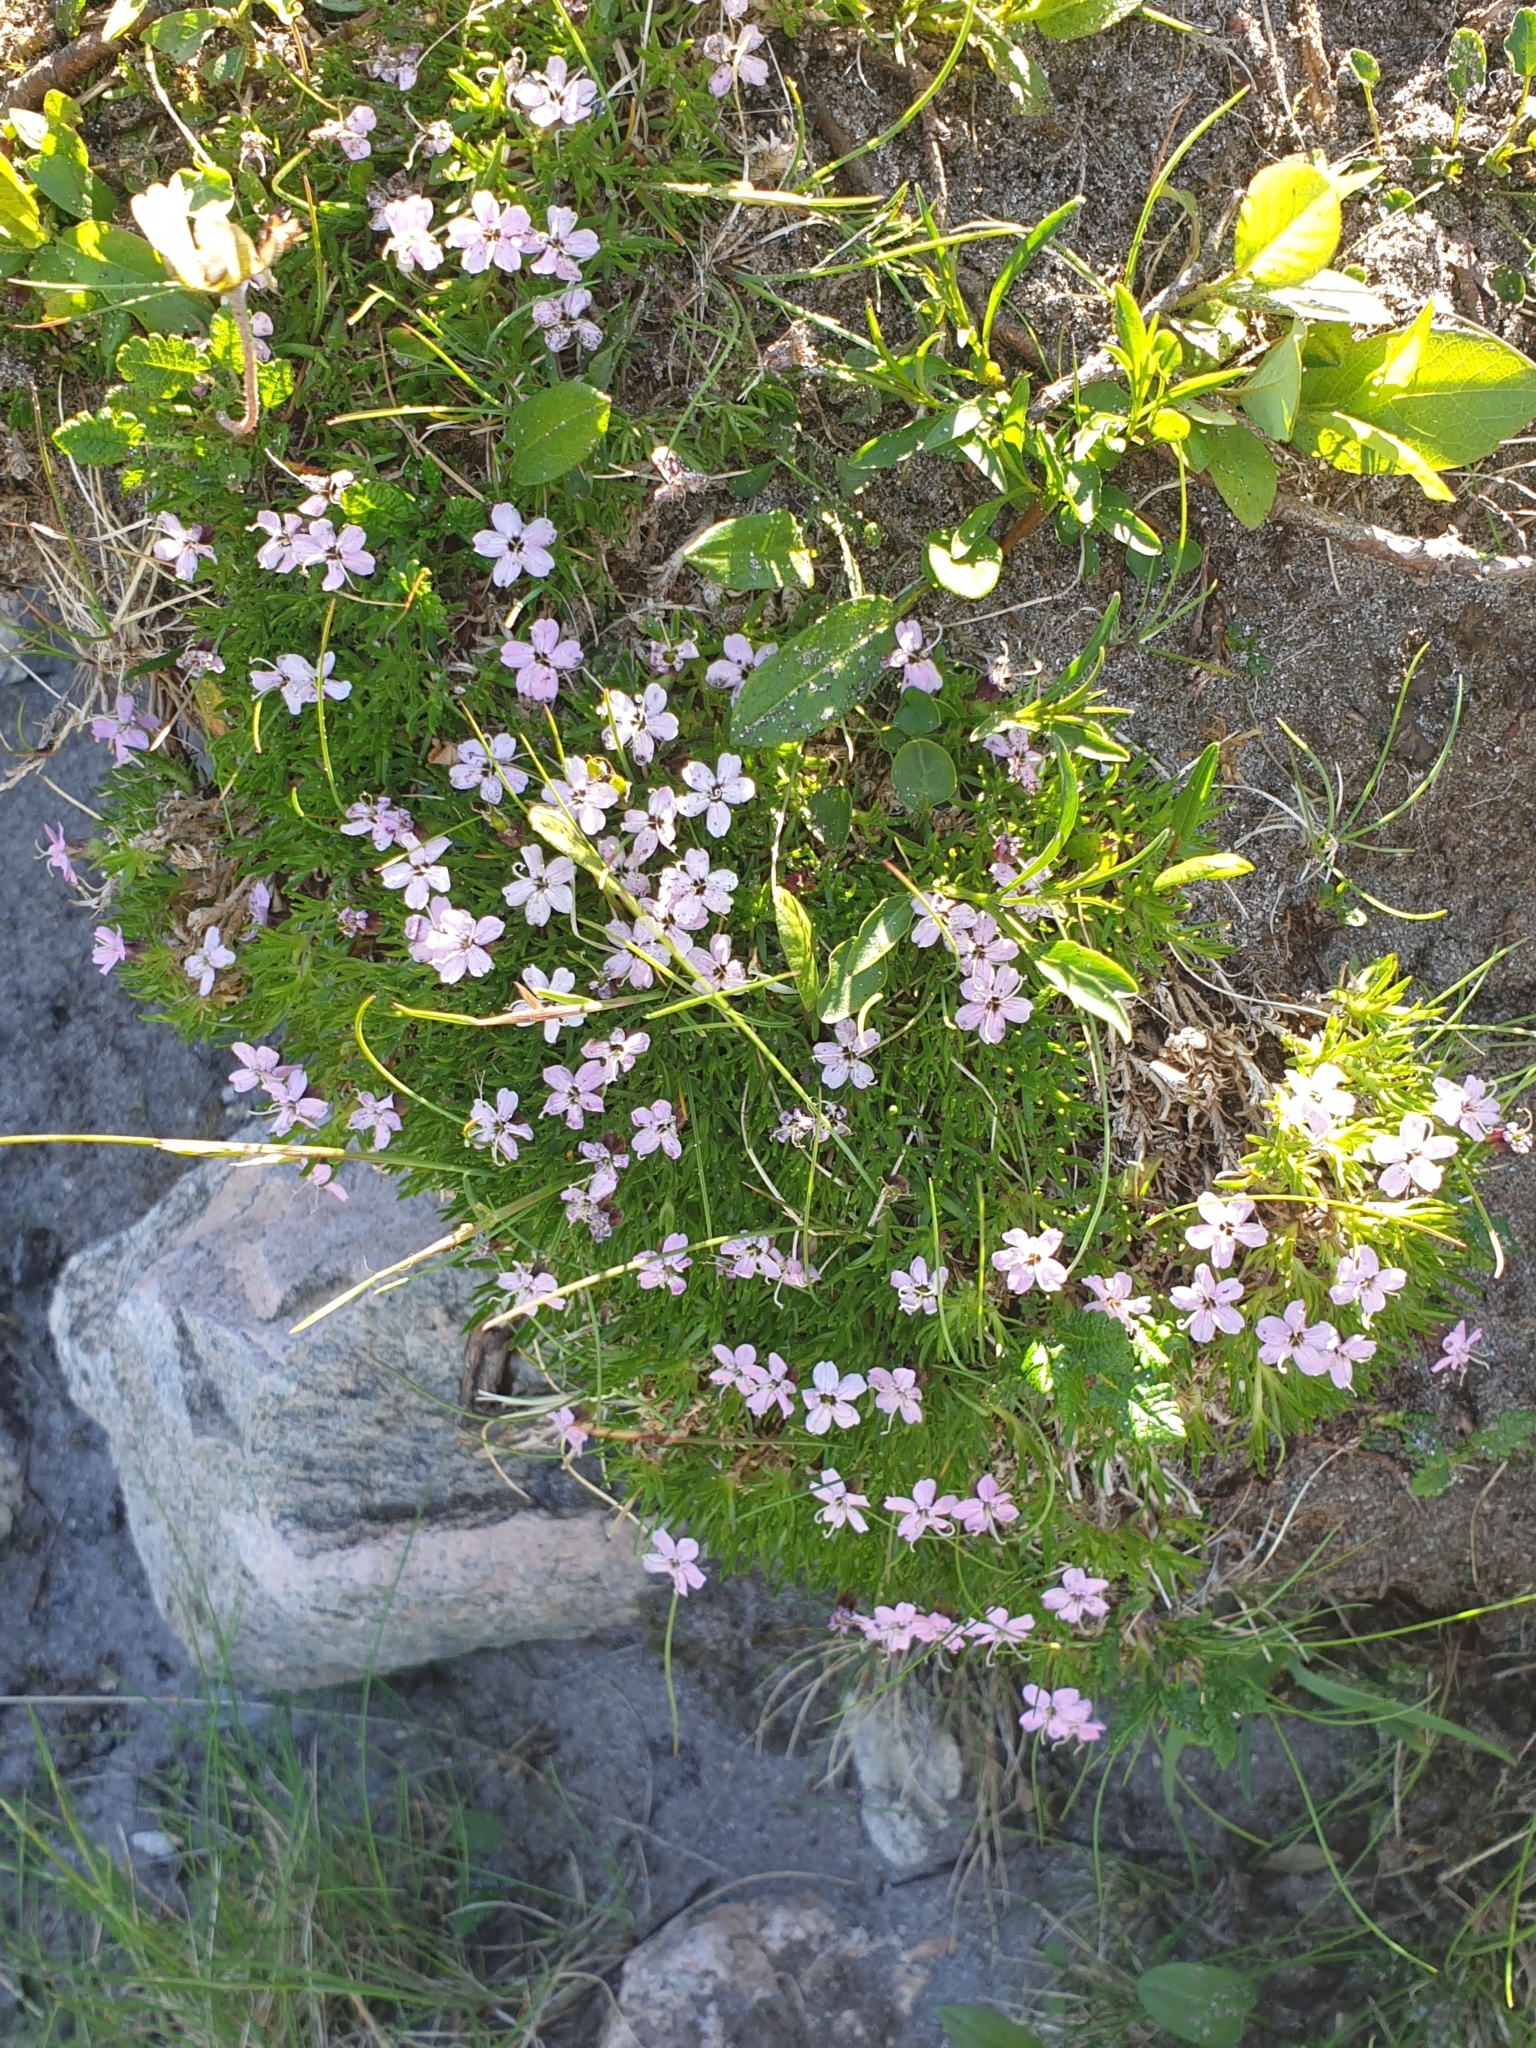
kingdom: Plantae
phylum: Tracheophyta
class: Magnoliopsida
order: Caryophyllales
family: Caryophyllaceae
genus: Silene
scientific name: Silene acaulis
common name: Moss campion
